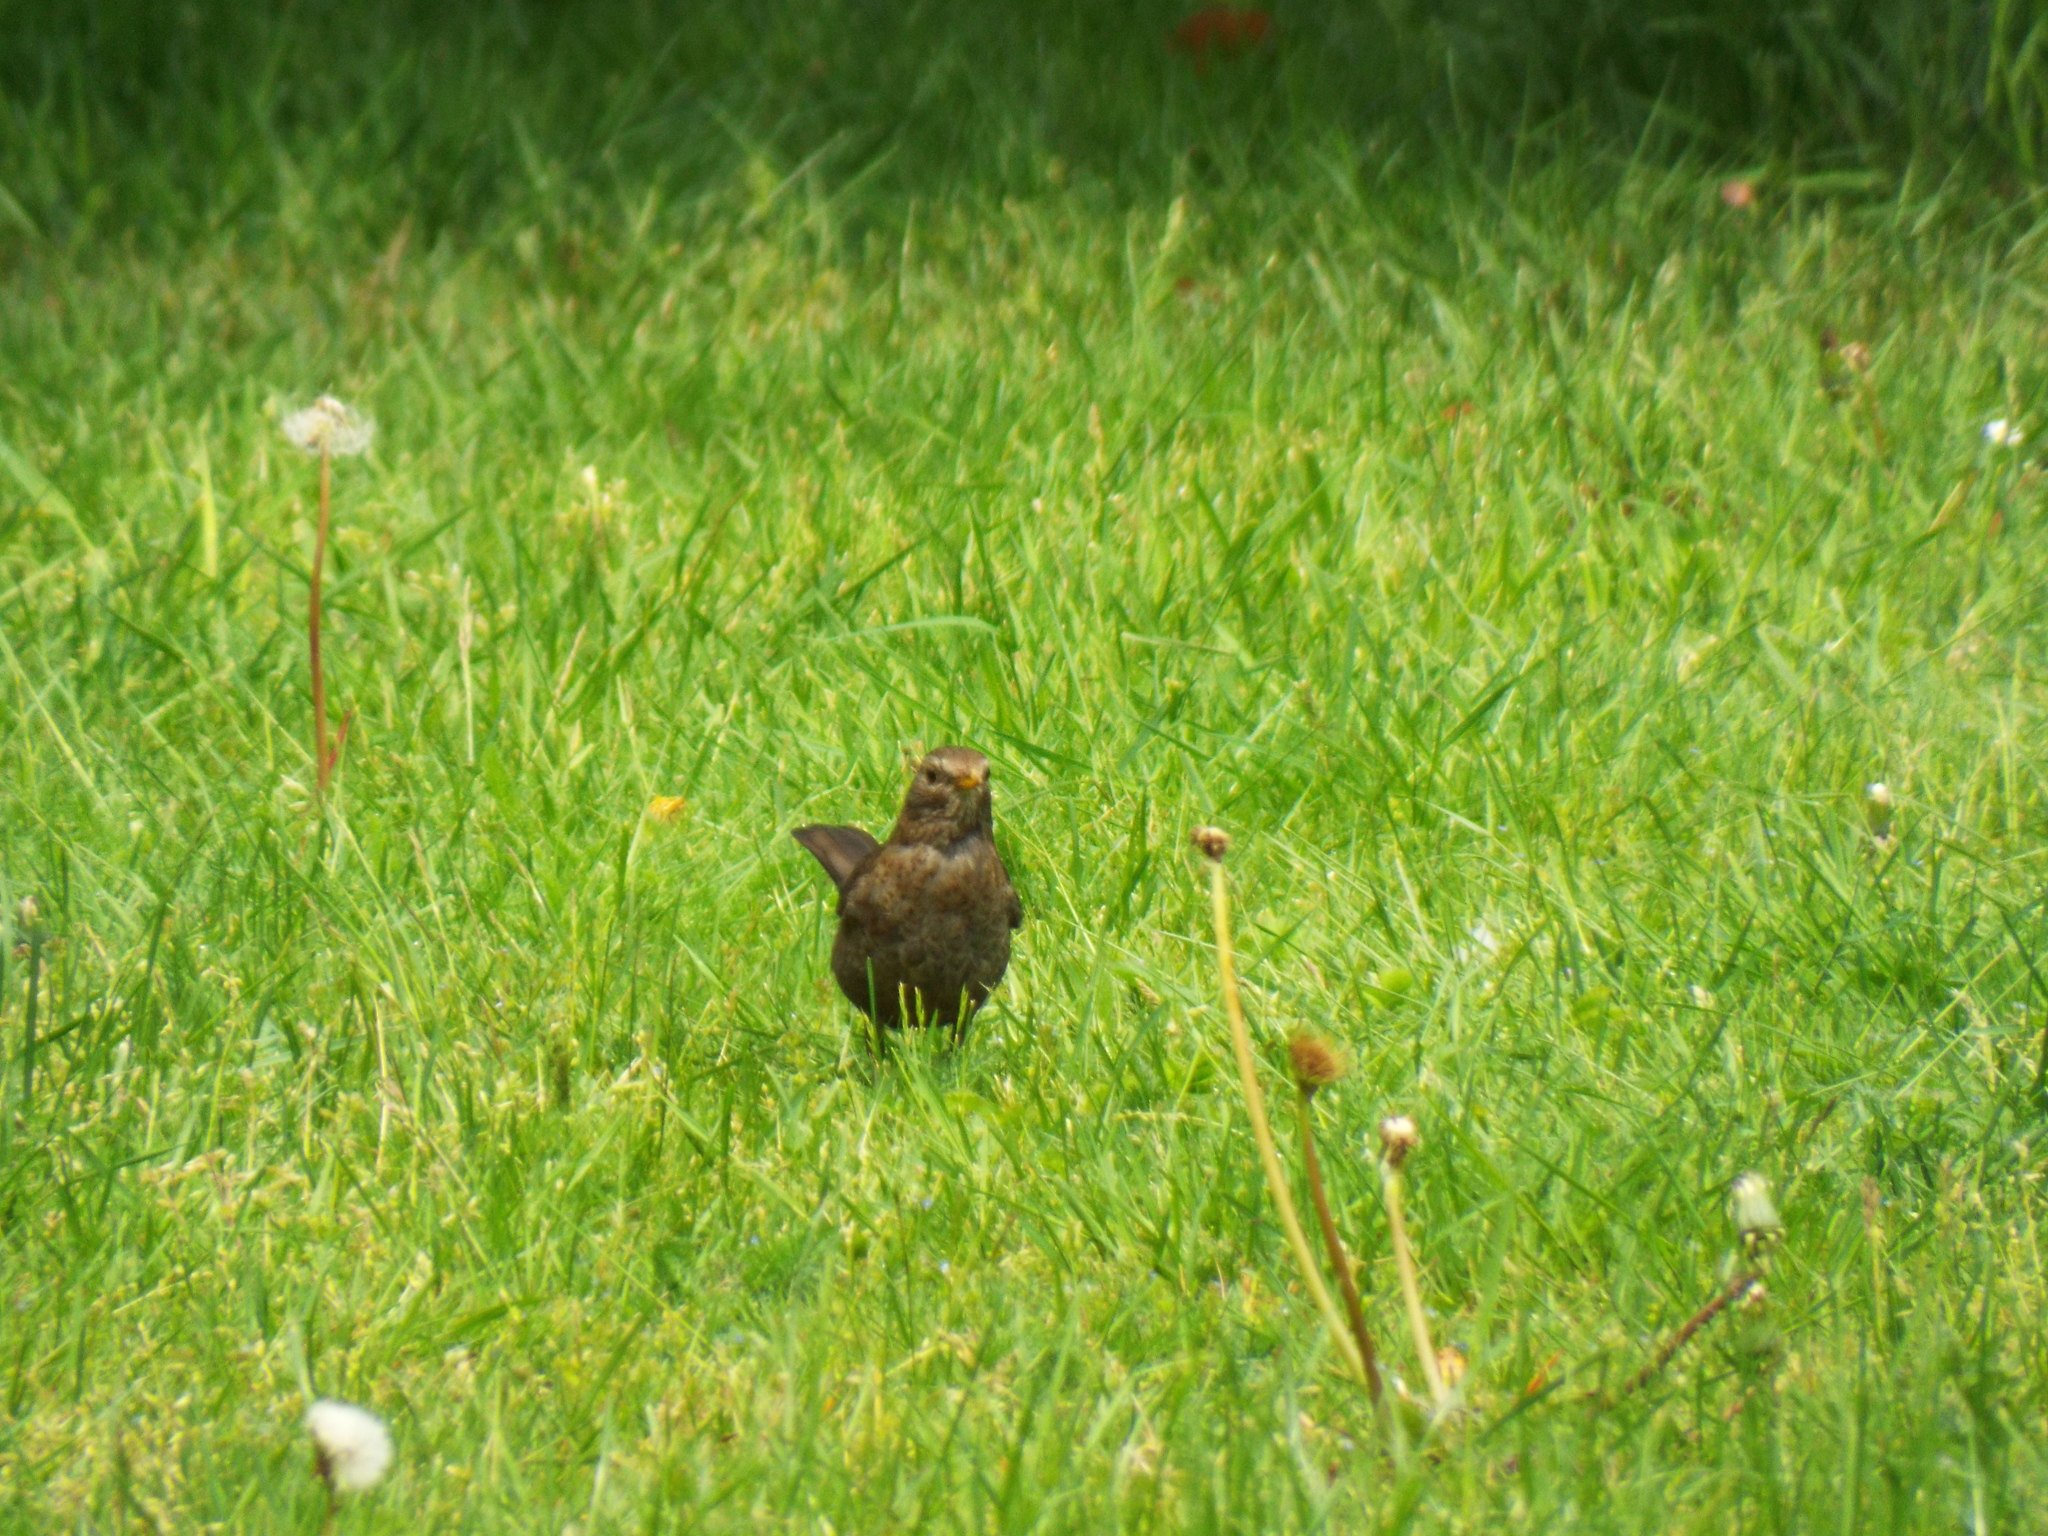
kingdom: Animalia
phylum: Chordata
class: Aves
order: Passeriformes
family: Turdidae
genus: Turdus
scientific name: Turdus merula
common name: Common blackbird
